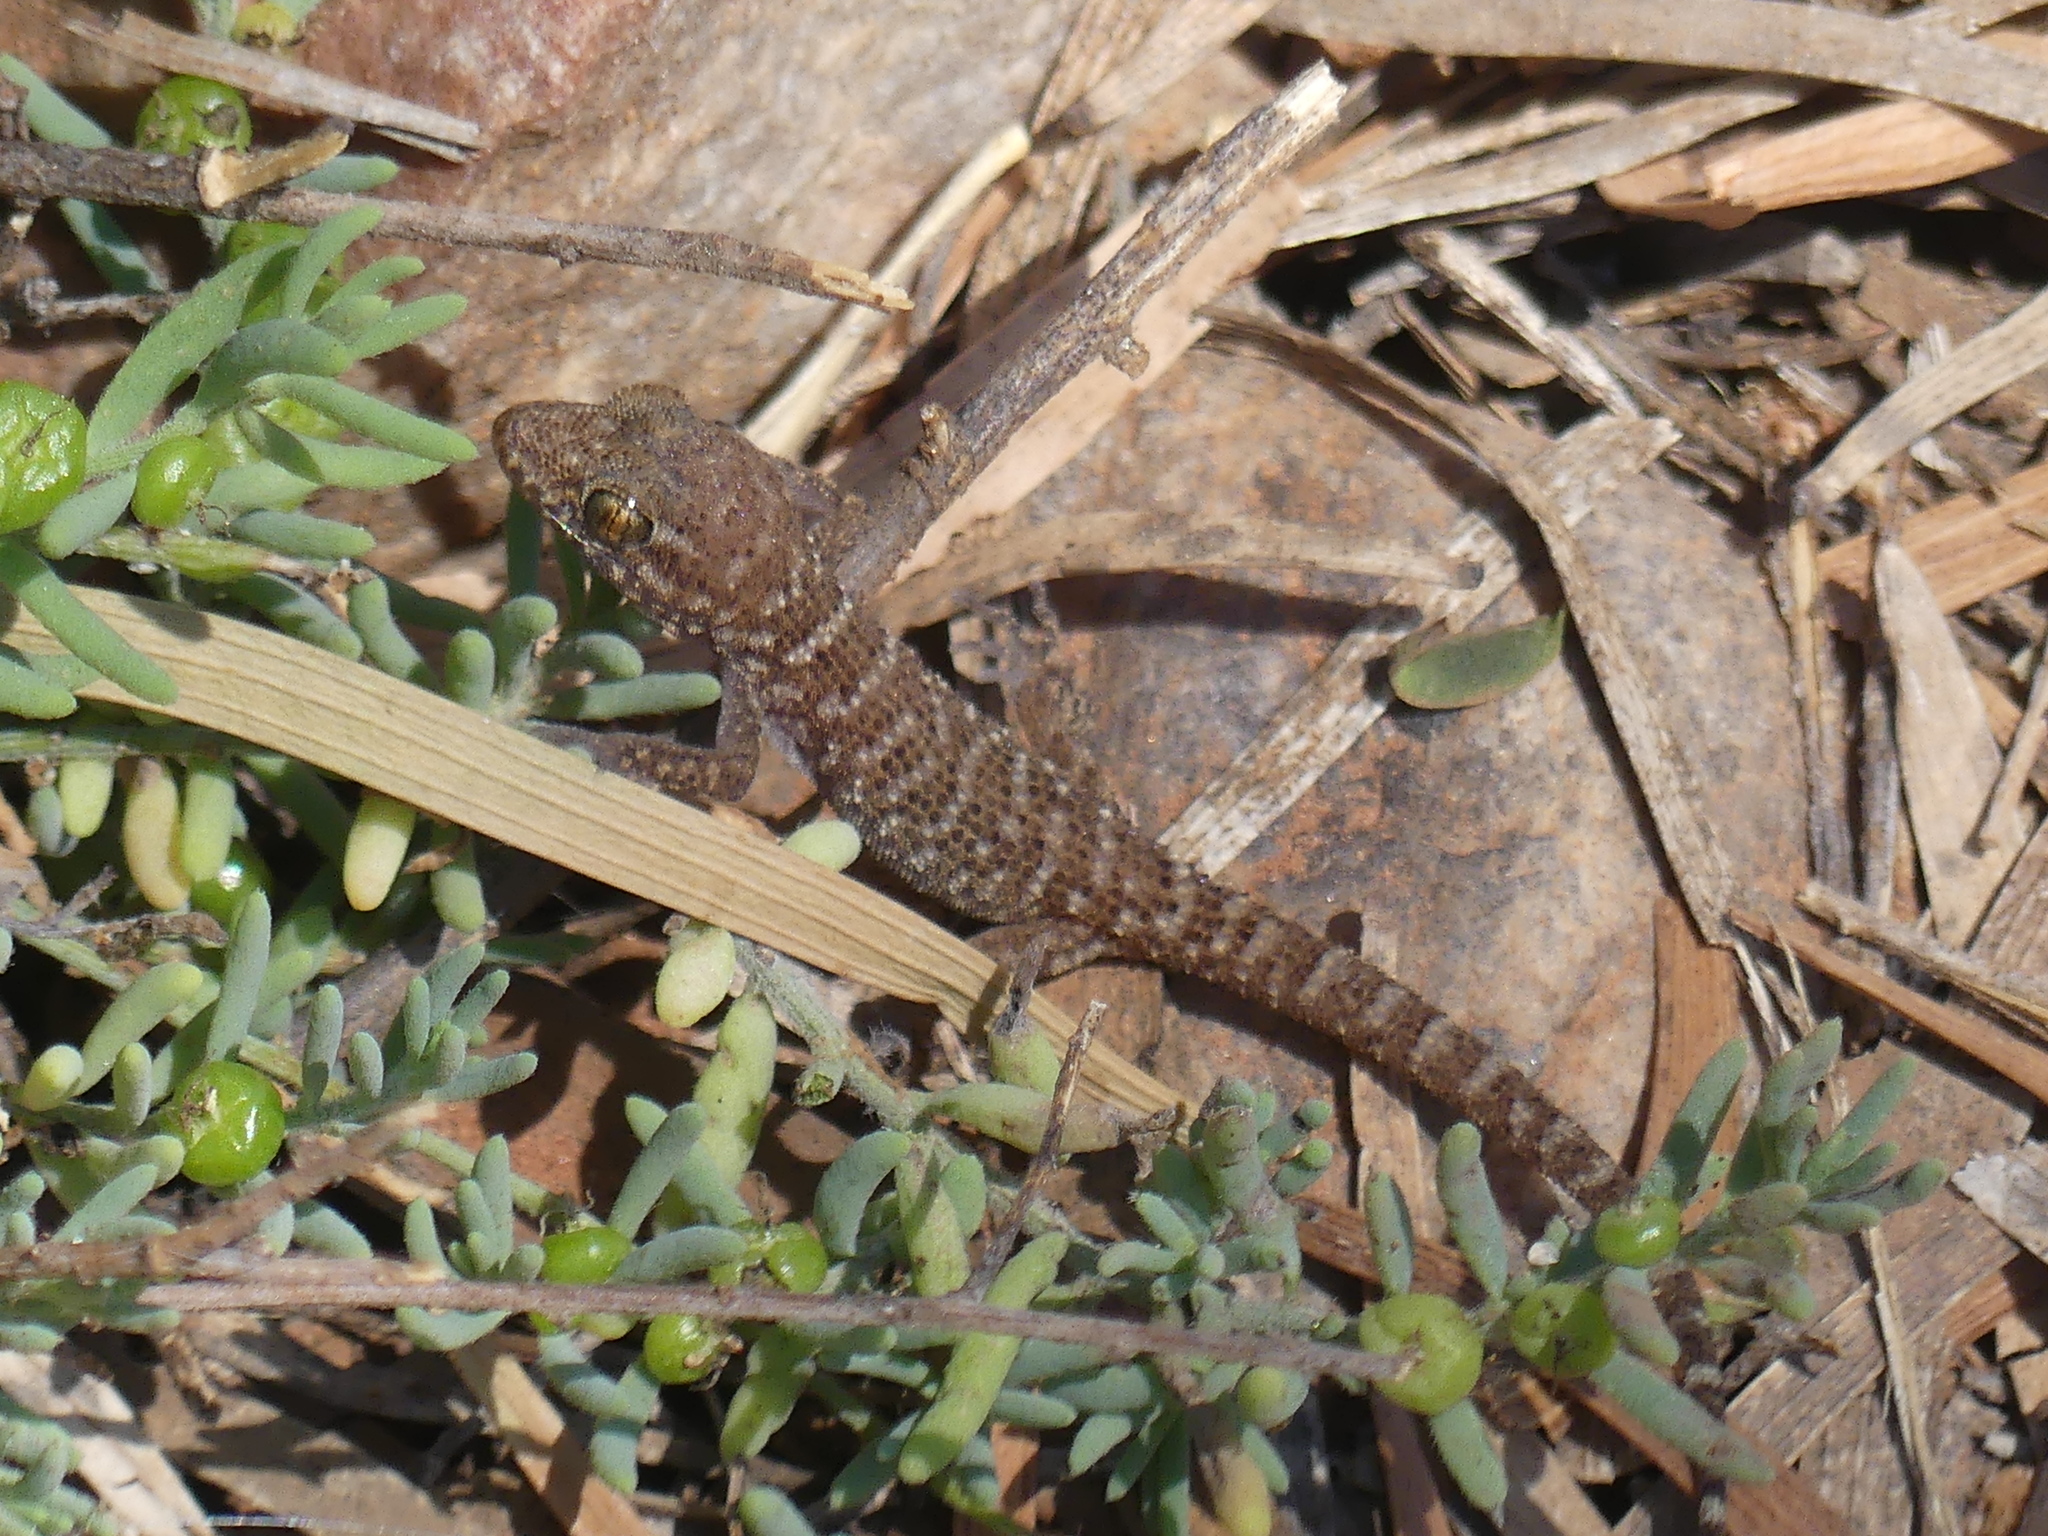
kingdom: Animalia
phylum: Chordata
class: Squamata
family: Gekkonidae
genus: Heteronotia
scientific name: Heteronotia binoei
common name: Bynoe's gecko
